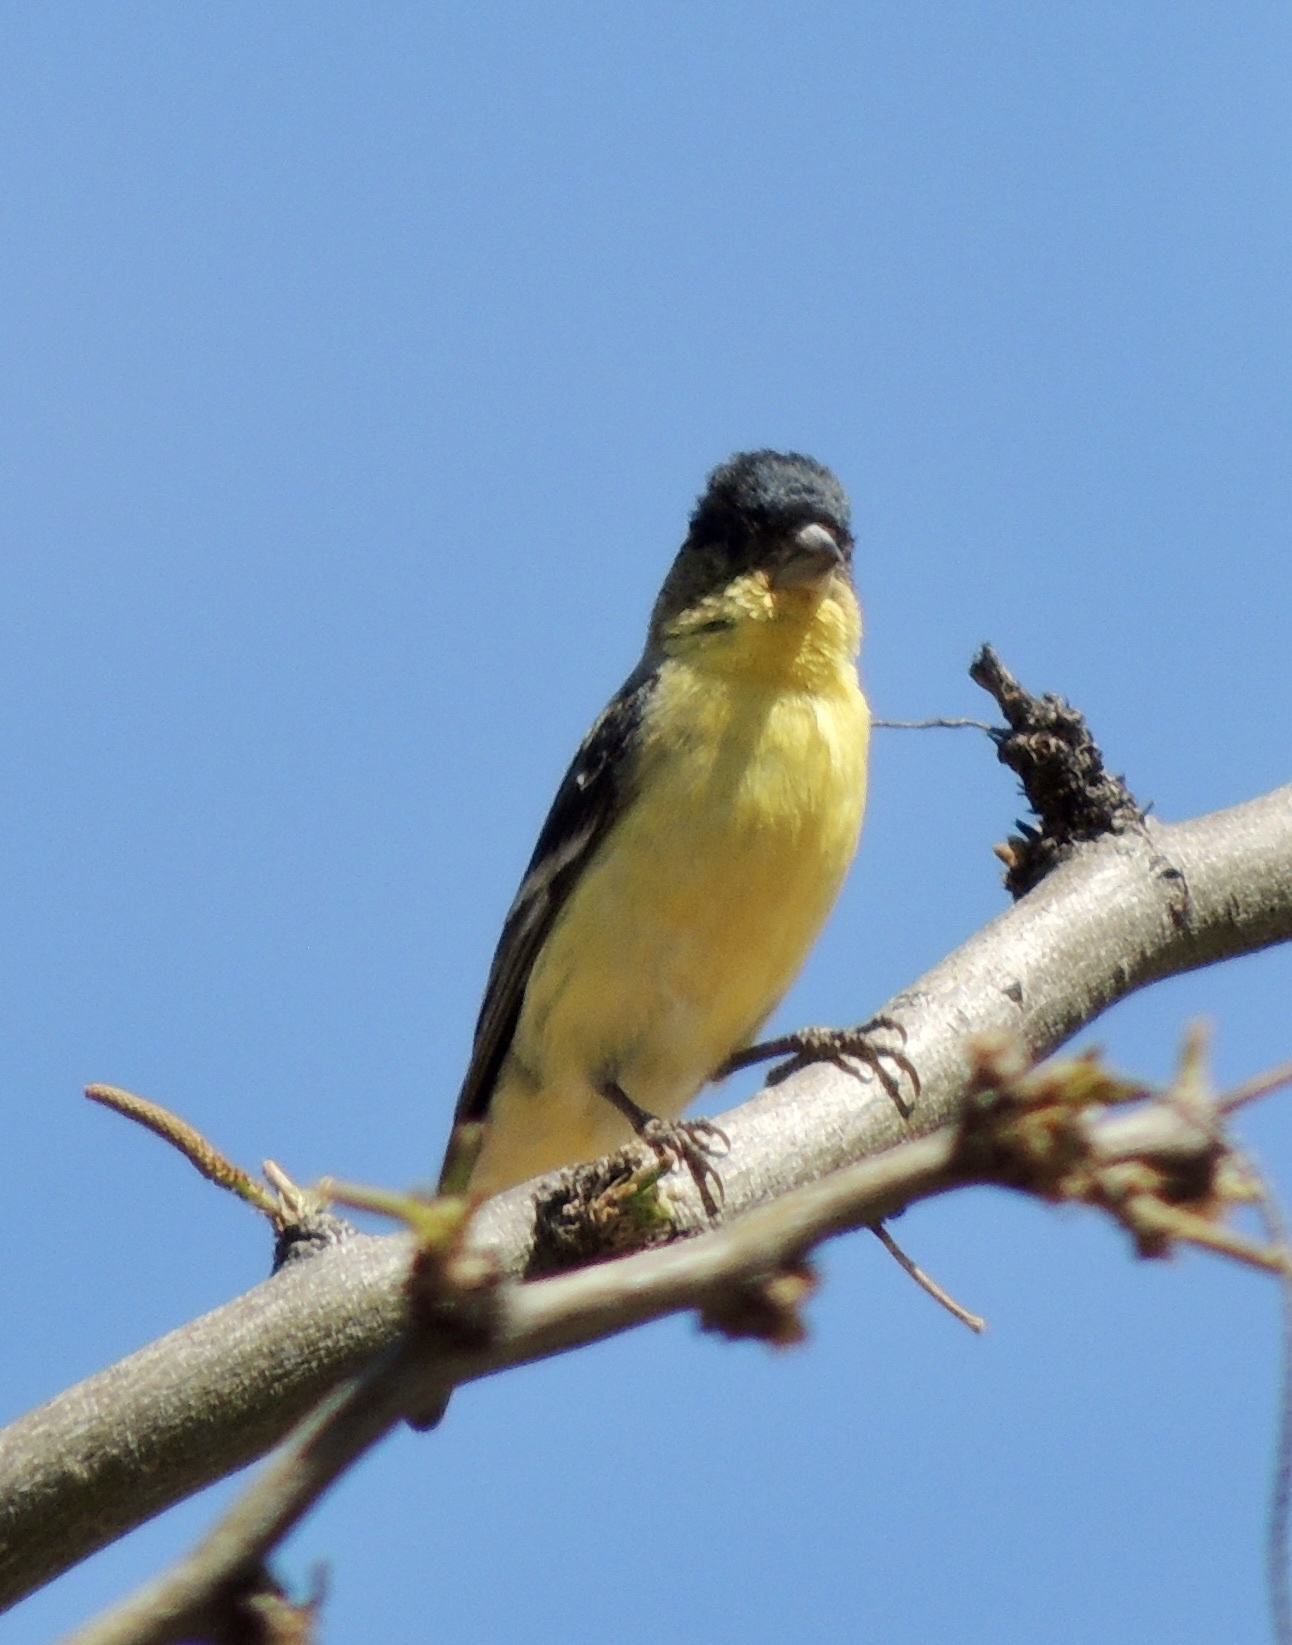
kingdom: Animalia
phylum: Chordata
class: Aves
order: Passeriformes
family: Fringillidae
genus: Spinus
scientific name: Spinus psaltria
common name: Lesser goldfinch
